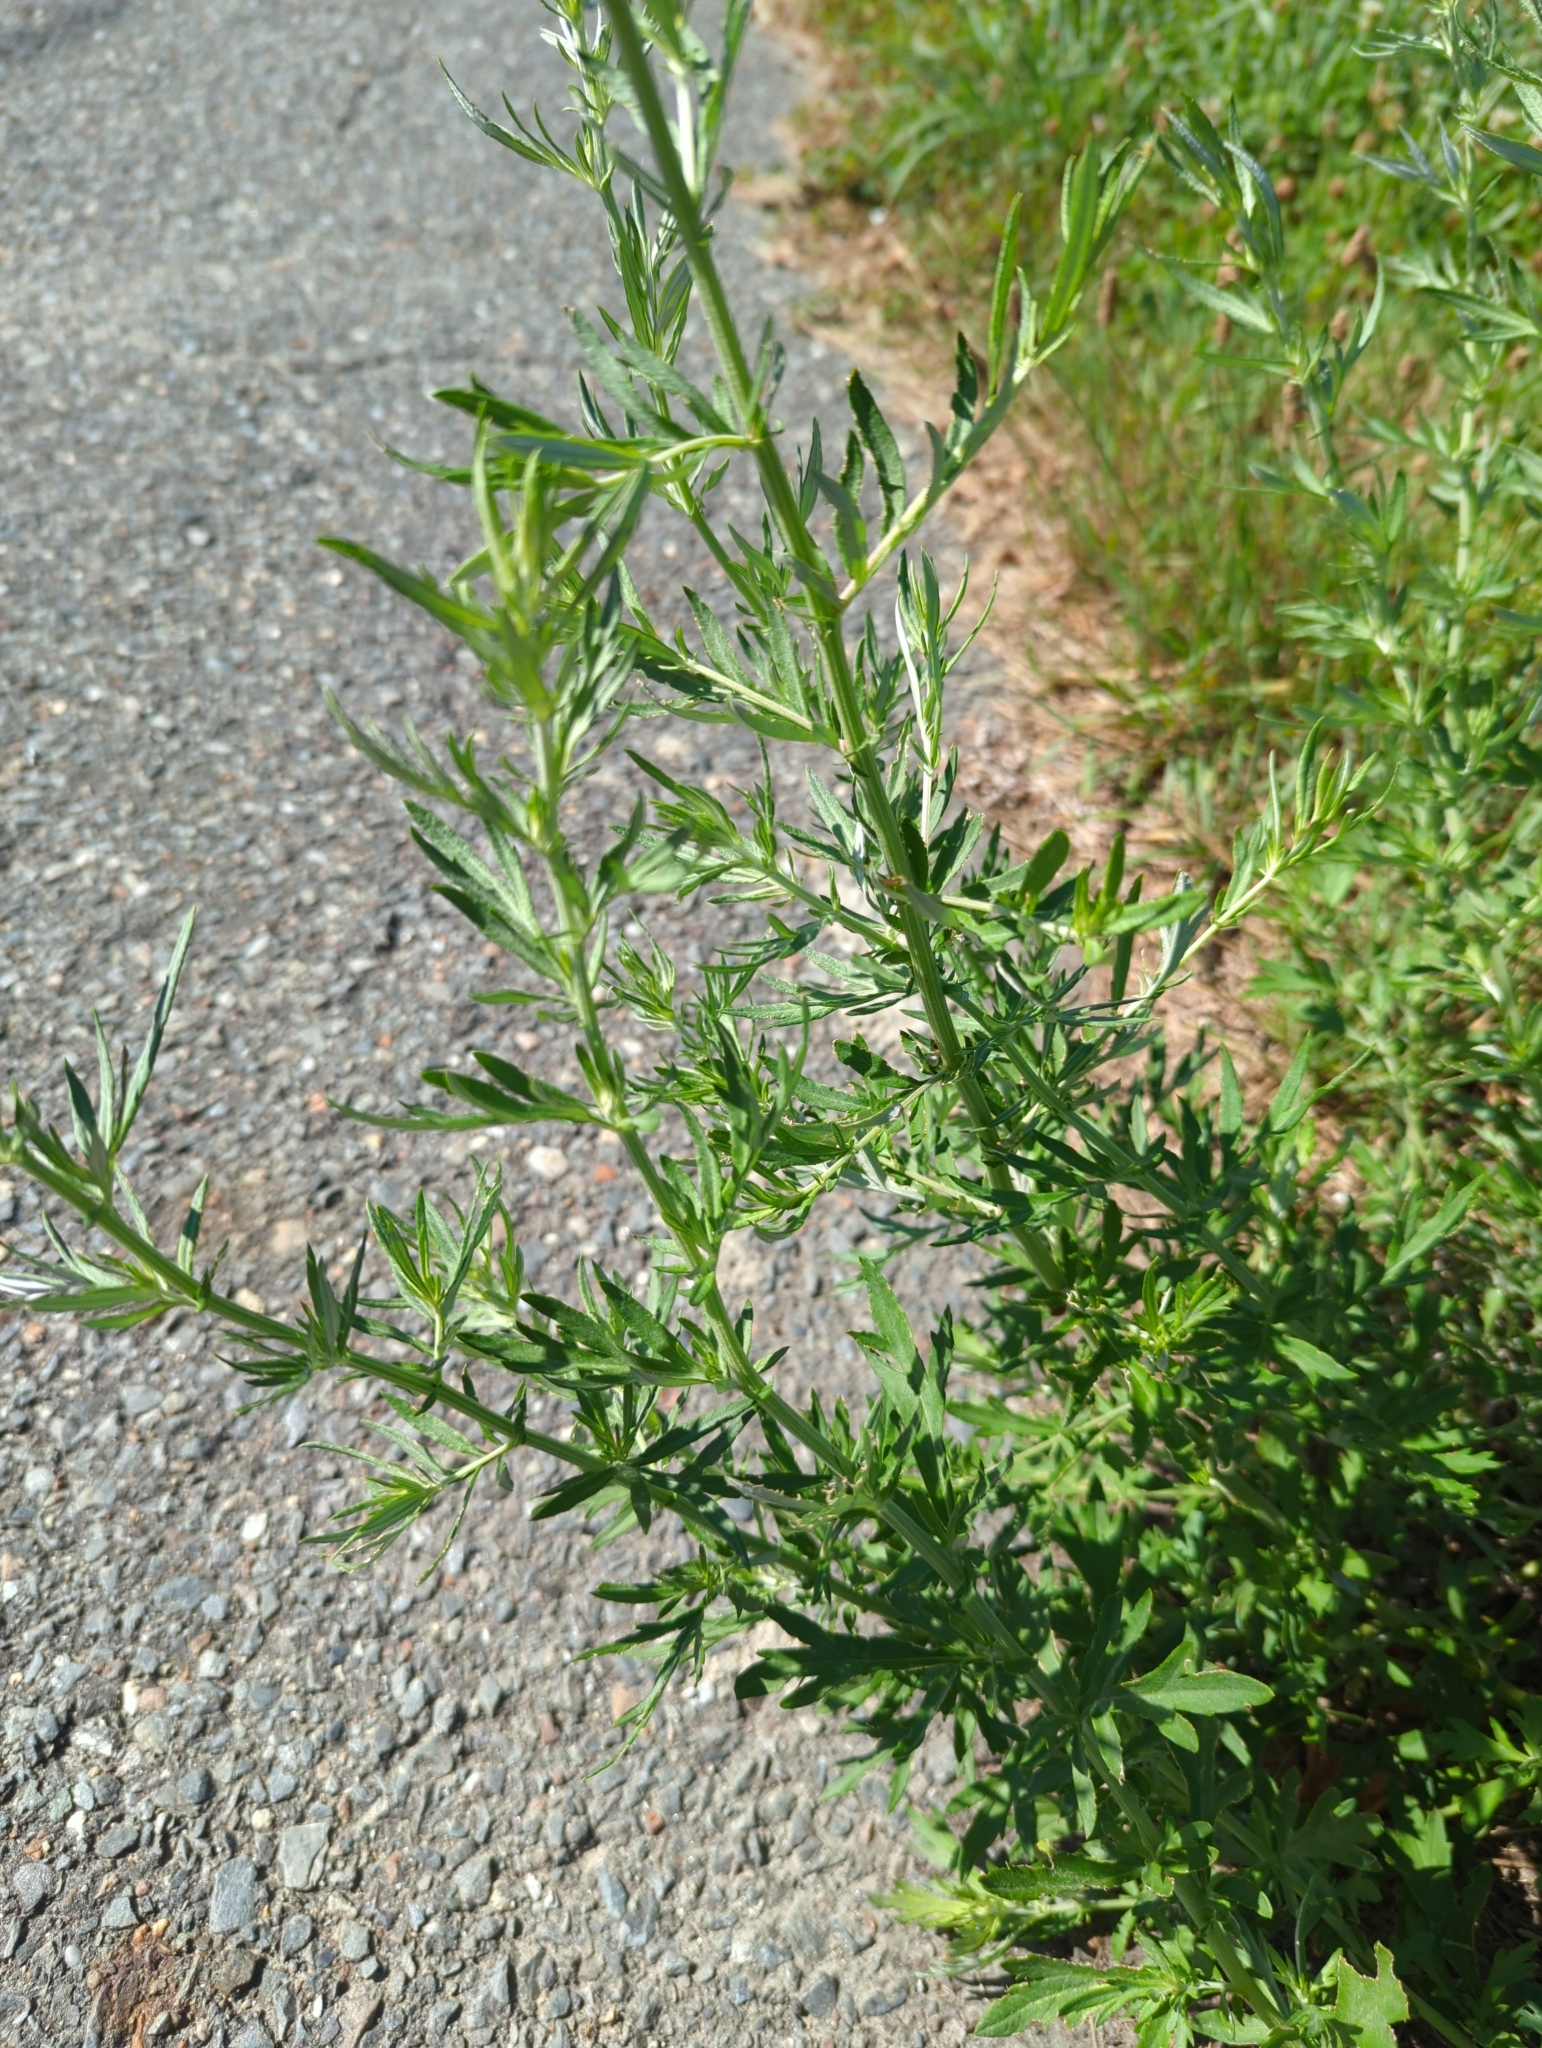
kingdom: Plantae
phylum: Tracheophyta
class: Magnoliopsida
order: Asterales
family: Asteraceae
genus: Artemisia
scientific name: Artemisia vulgaris
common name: Mugwort
